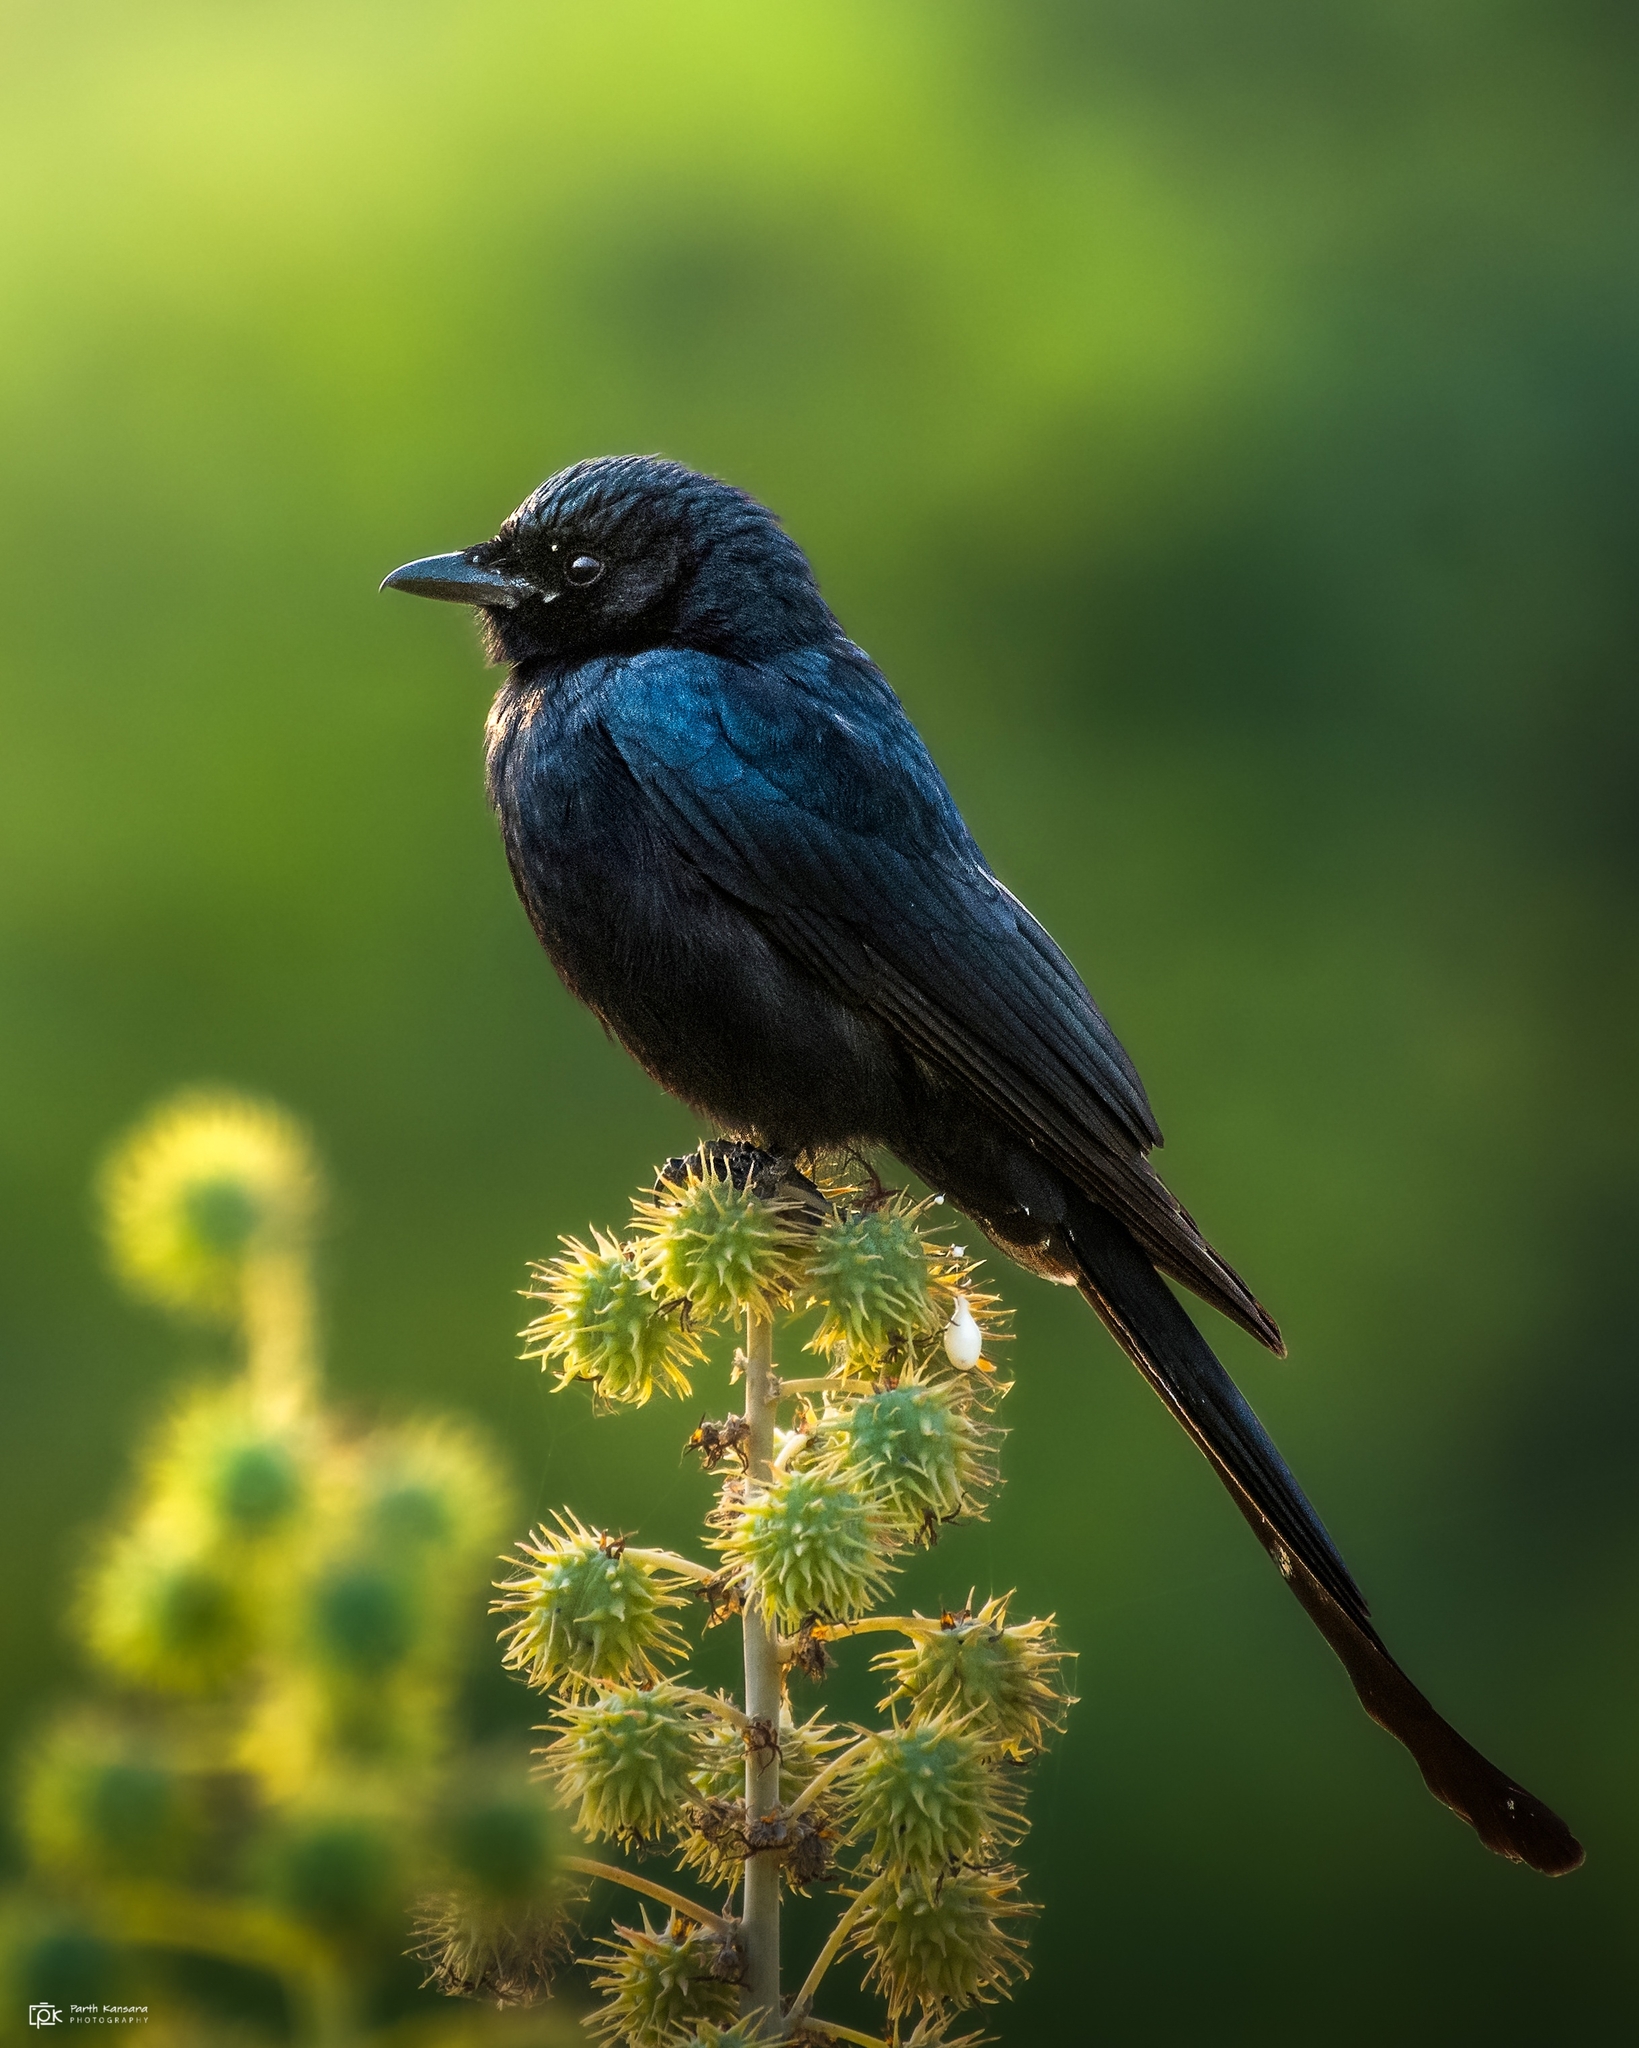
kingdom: Animalia
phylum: Chordata
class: Aves
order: Passeriformes
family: Dicruridae
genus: Dicrurus
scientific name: Dicrurus macrocercus
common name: Black drongo
